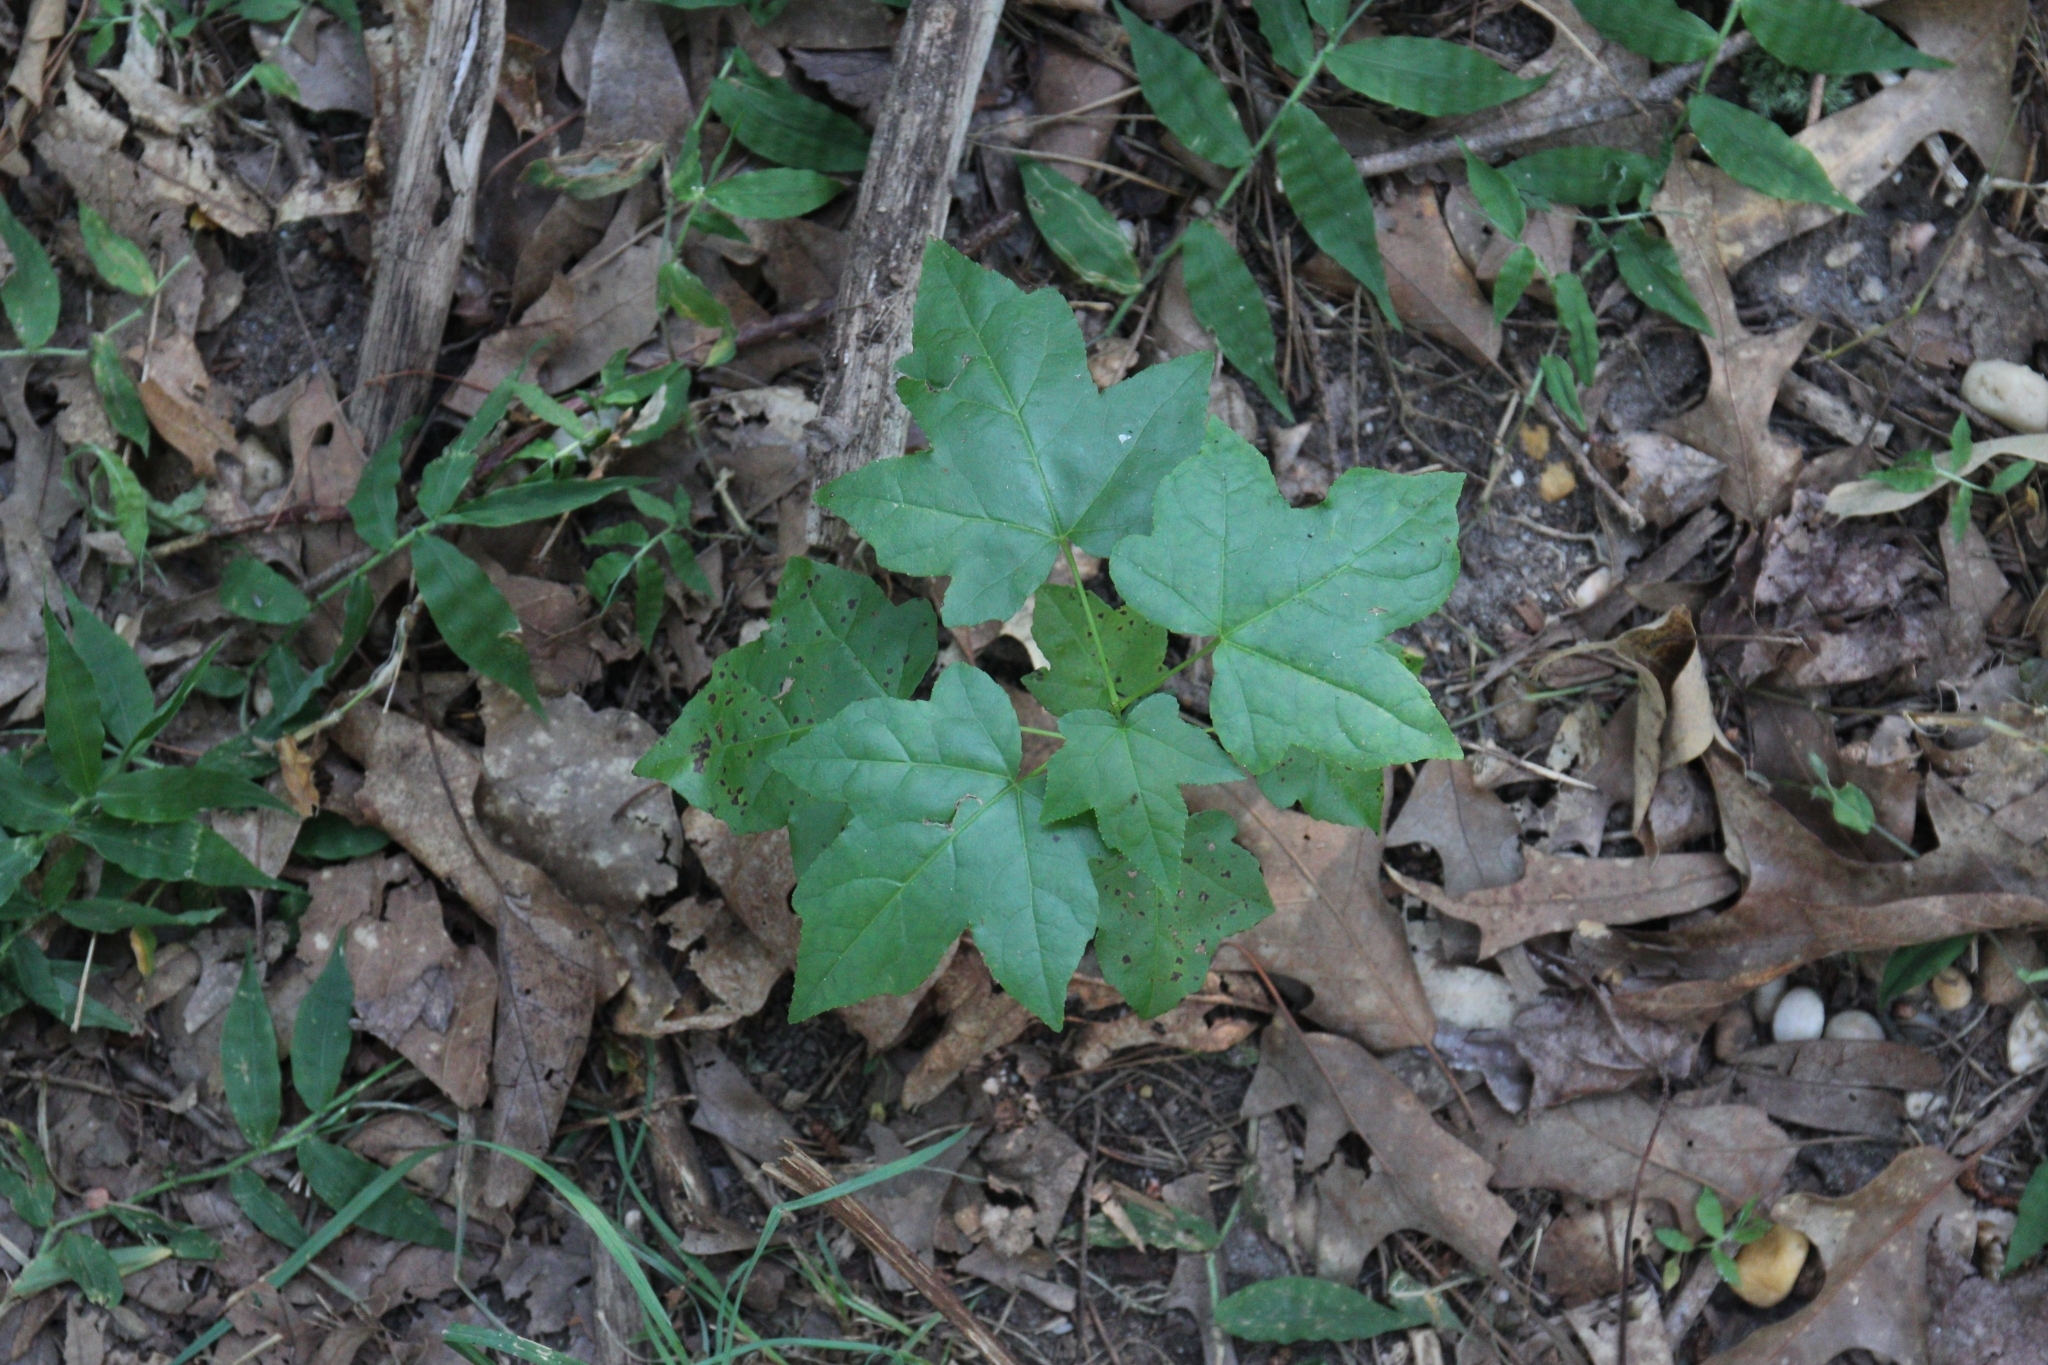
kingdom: Plantae
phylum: Tracheophyta
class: Magnoliopsida
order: Saxifragales
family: Altingiaceae
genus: Liquidambar
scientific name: Liquidambar styraciflua
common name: Sweet gum
